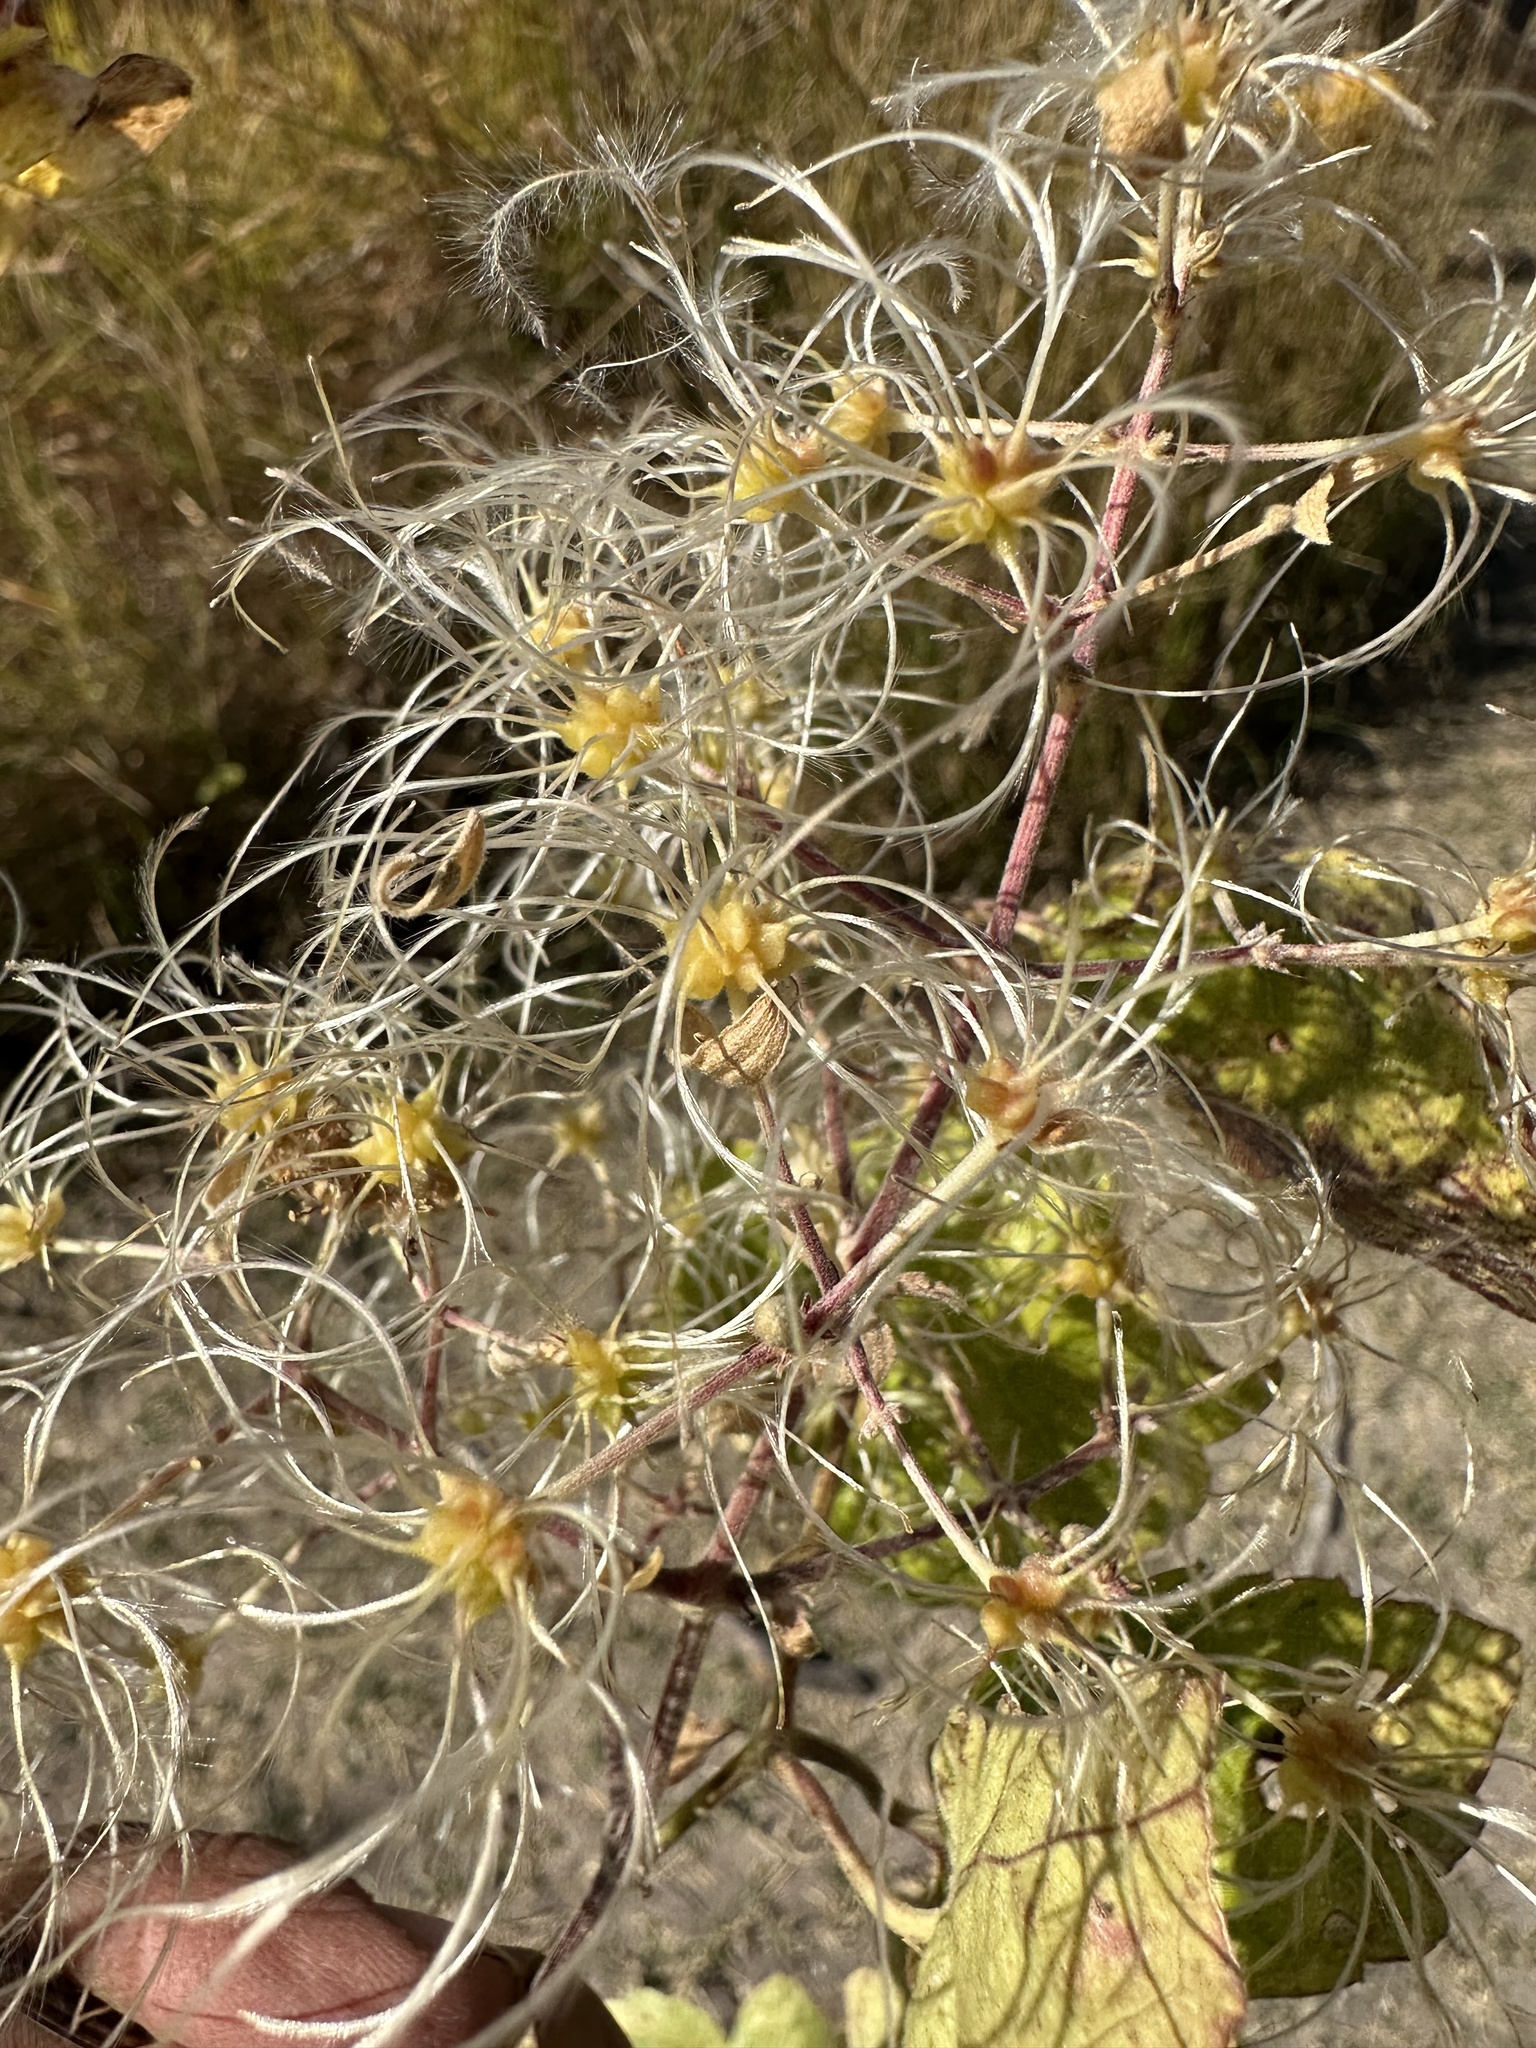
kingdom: Plantae
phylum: Tracheophyta
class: Magnoliopsida
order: Ranunculales
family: Ranunculaceae
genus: Clematis
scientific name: Clematis brachiata
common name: Traveler's-joy
